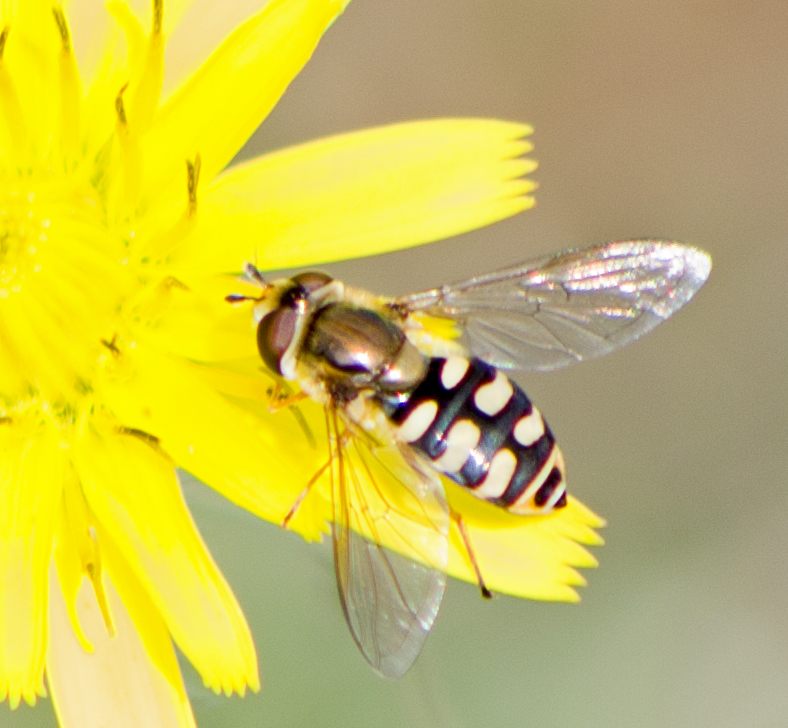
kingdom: Animalia
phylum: Arthropoda
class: Insecta
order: Diptera
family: Syrphidae
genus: Eupeodes
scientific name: Eupeodes corollae
